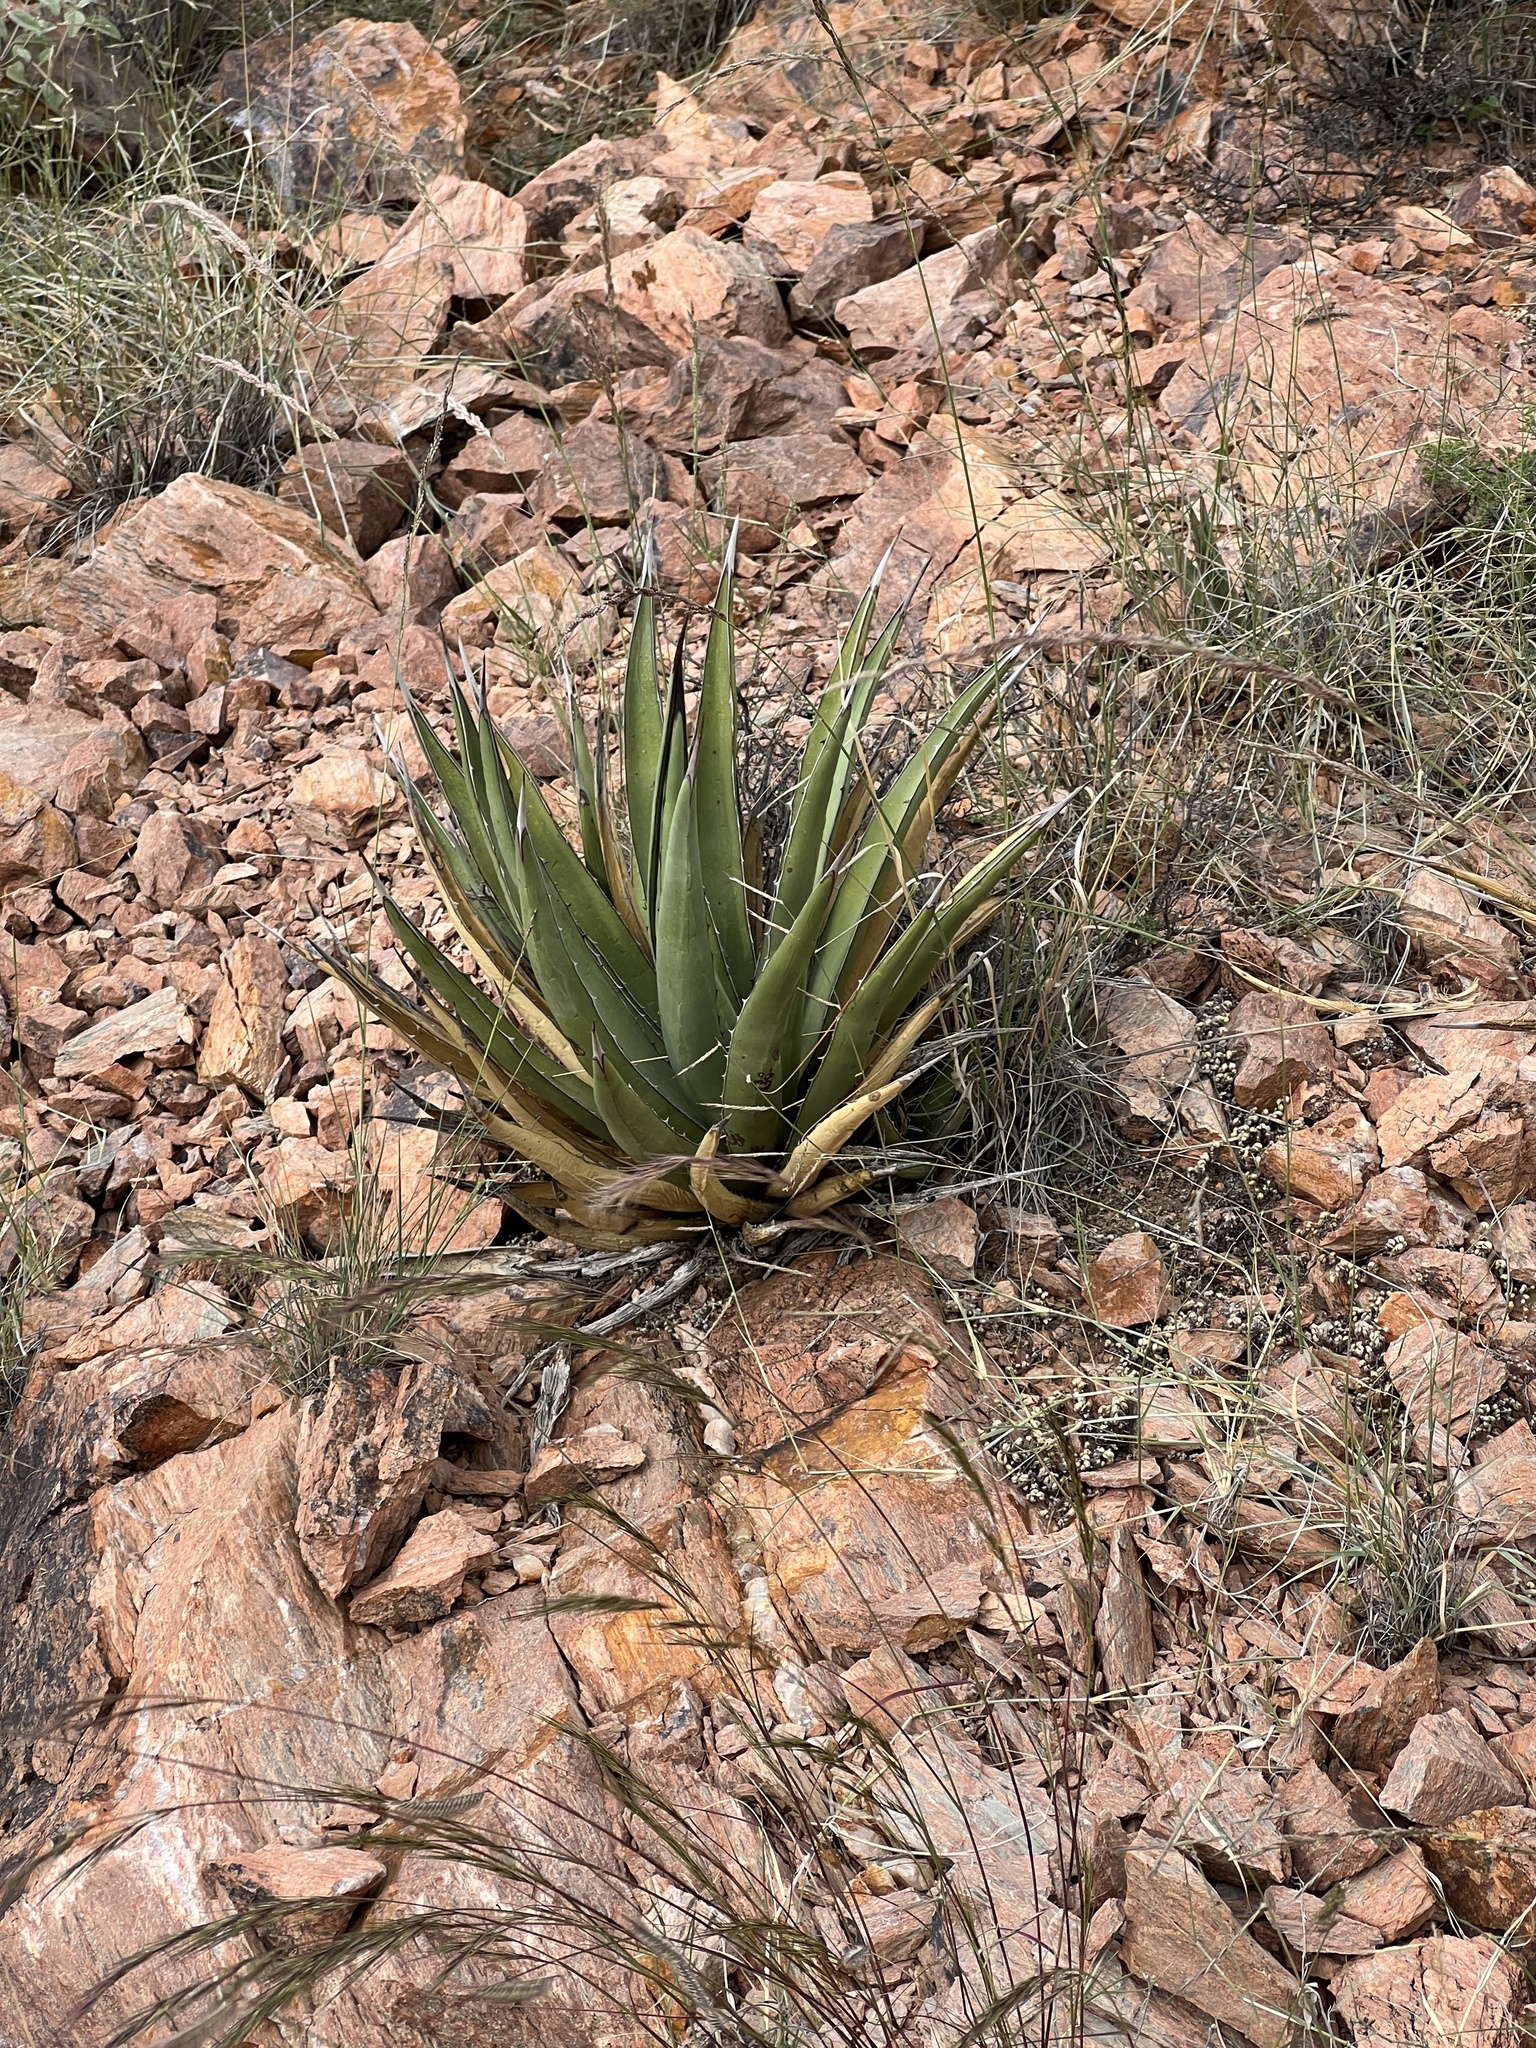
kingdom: Plantae
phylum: Tracheophyta
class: Liliopsida
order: Asparagales
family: Asparagaceae
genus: Agave
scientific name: Agave lechuguilla
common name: Lecheguilla agave
